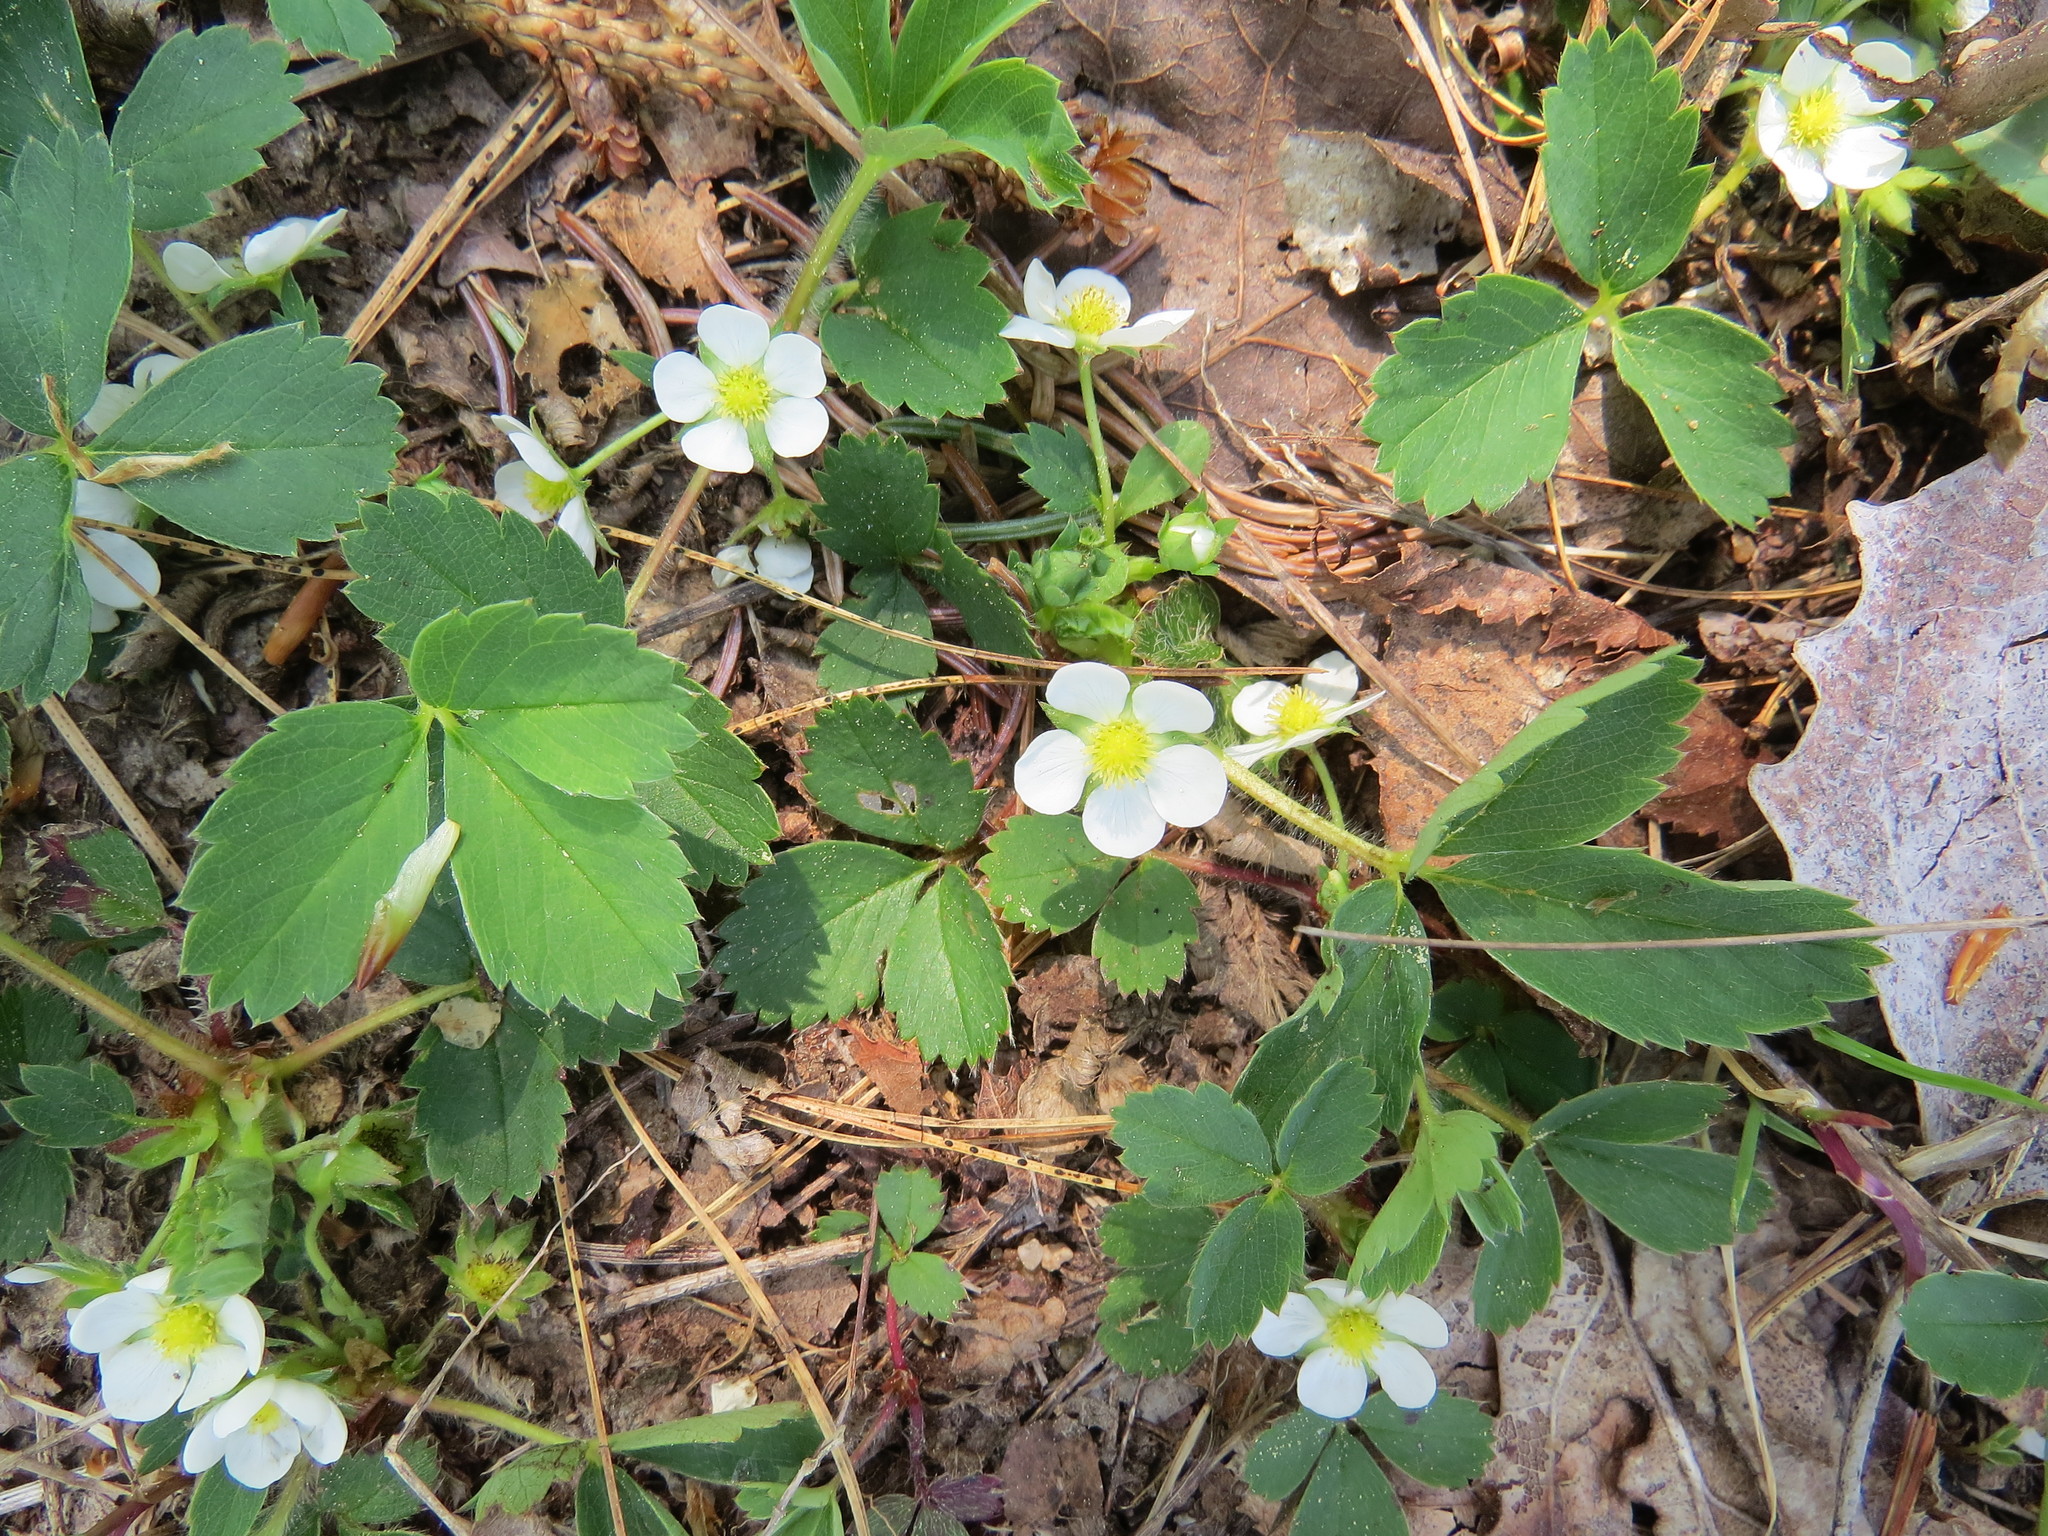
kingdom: Plantae
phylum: Tracheophyta
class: Magnoliopsida
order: Rosales
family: Rosaceae
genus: Fragaria
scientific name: Fragaria virginiana
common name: Thickleaved wild strawberry
